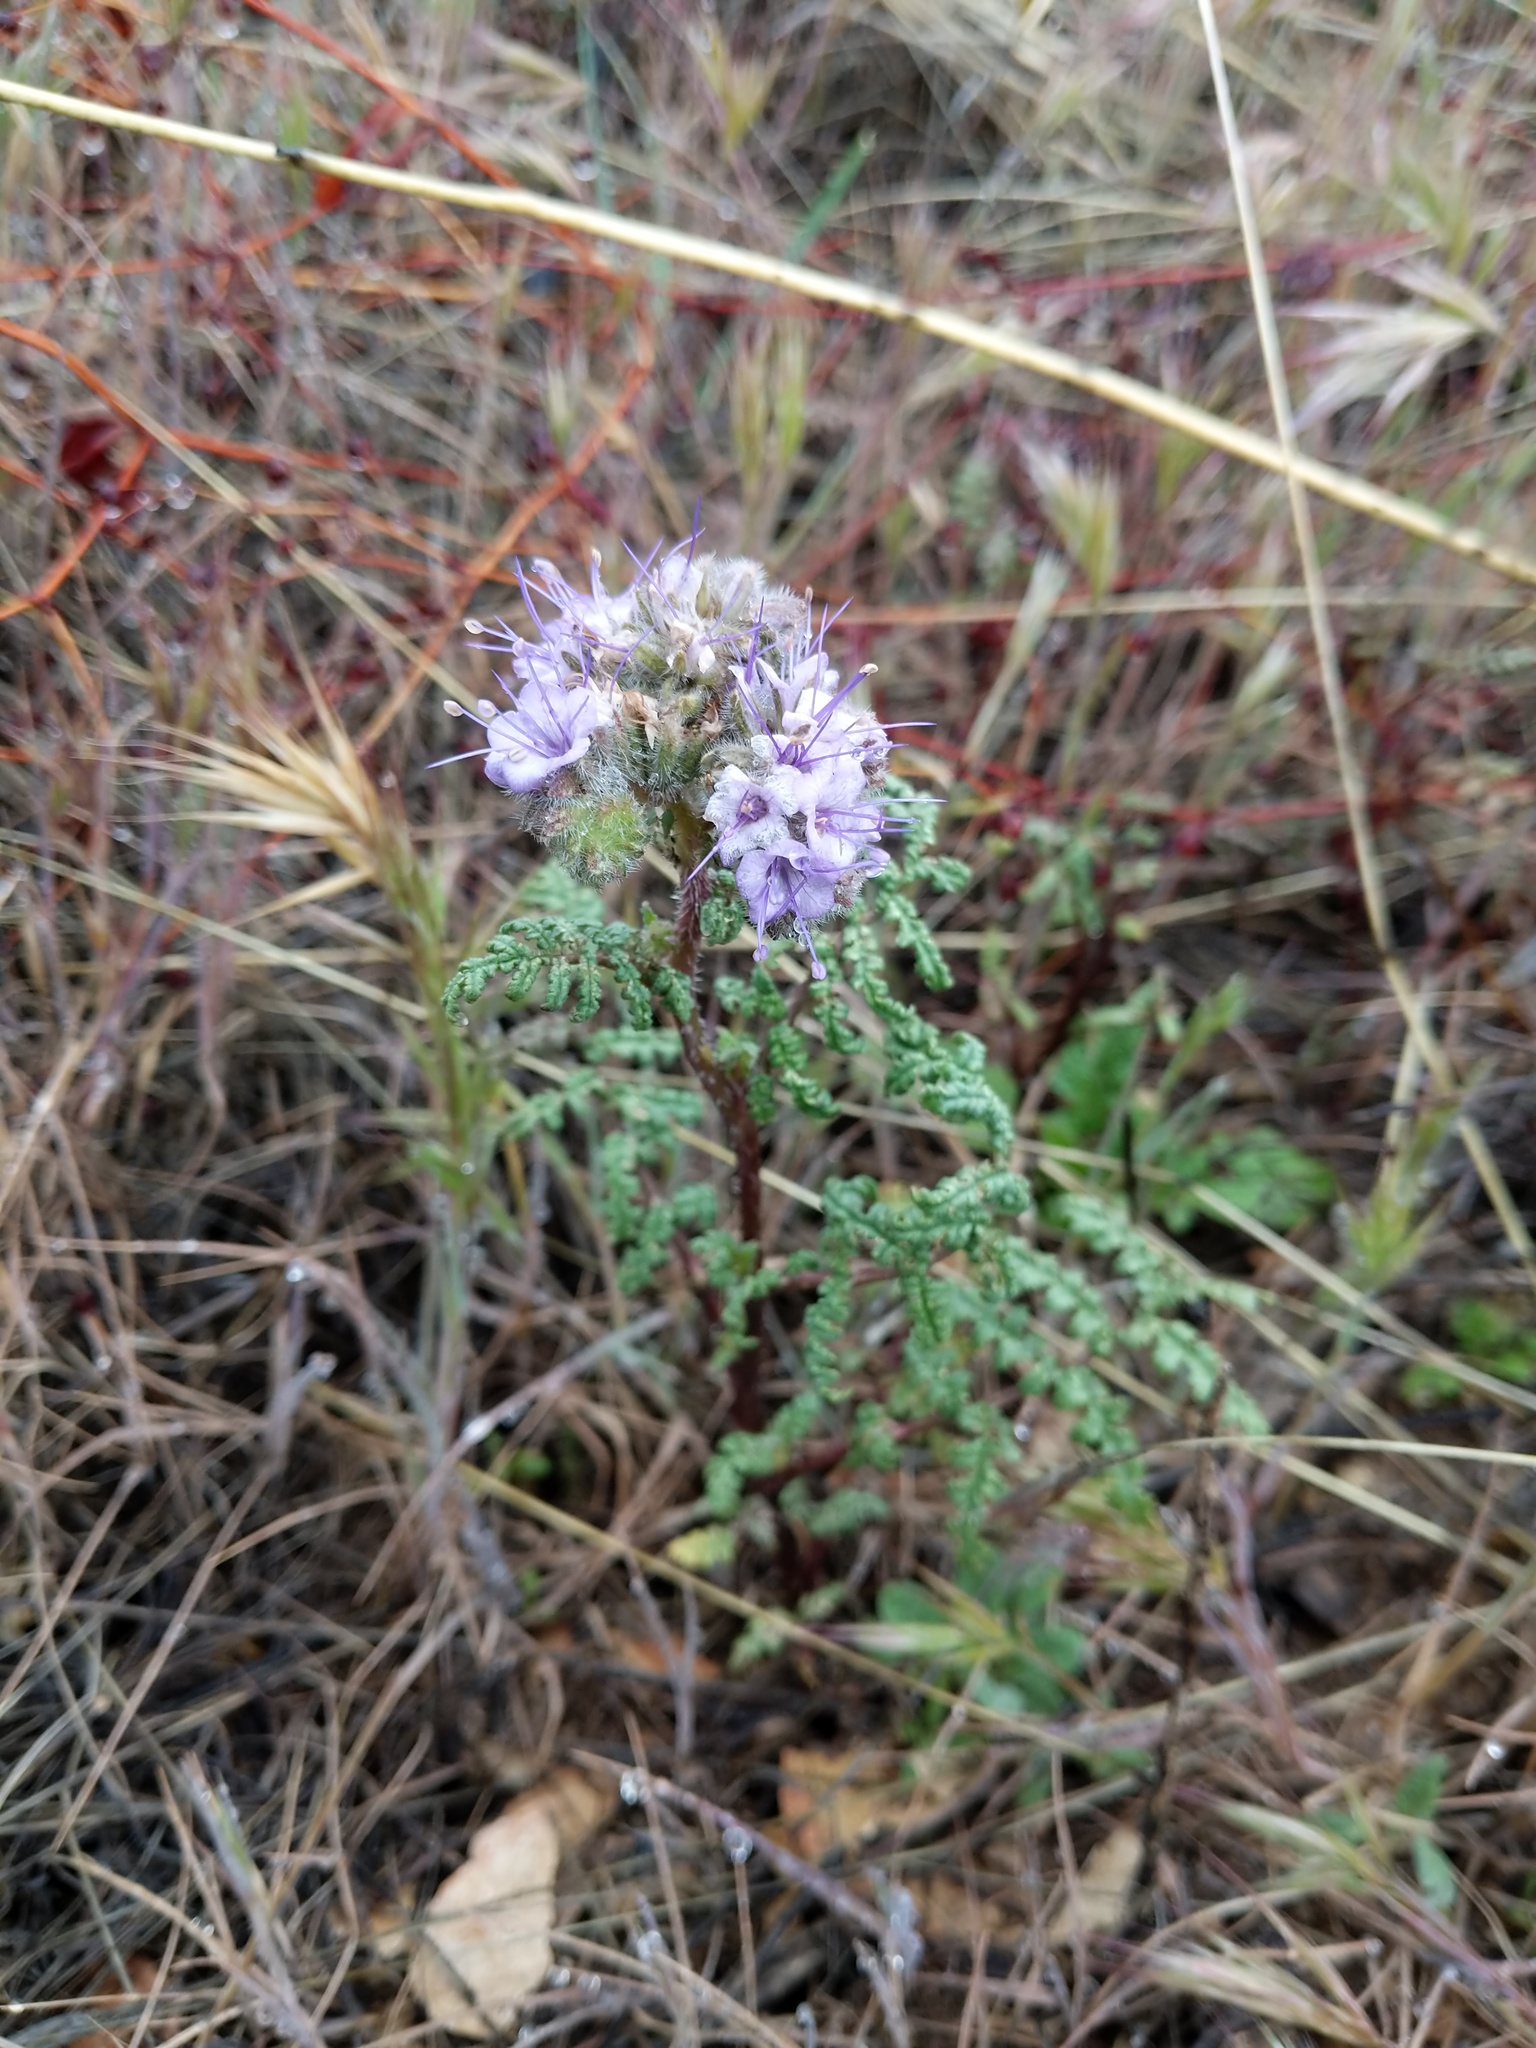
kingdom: Plantae
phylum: Tracheophyta
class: Magnoliopsida
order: Boraginales
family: Hydrophyllaceae
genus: Phacelia
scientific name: Phacelia tanacetifolia
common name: Phacelia
